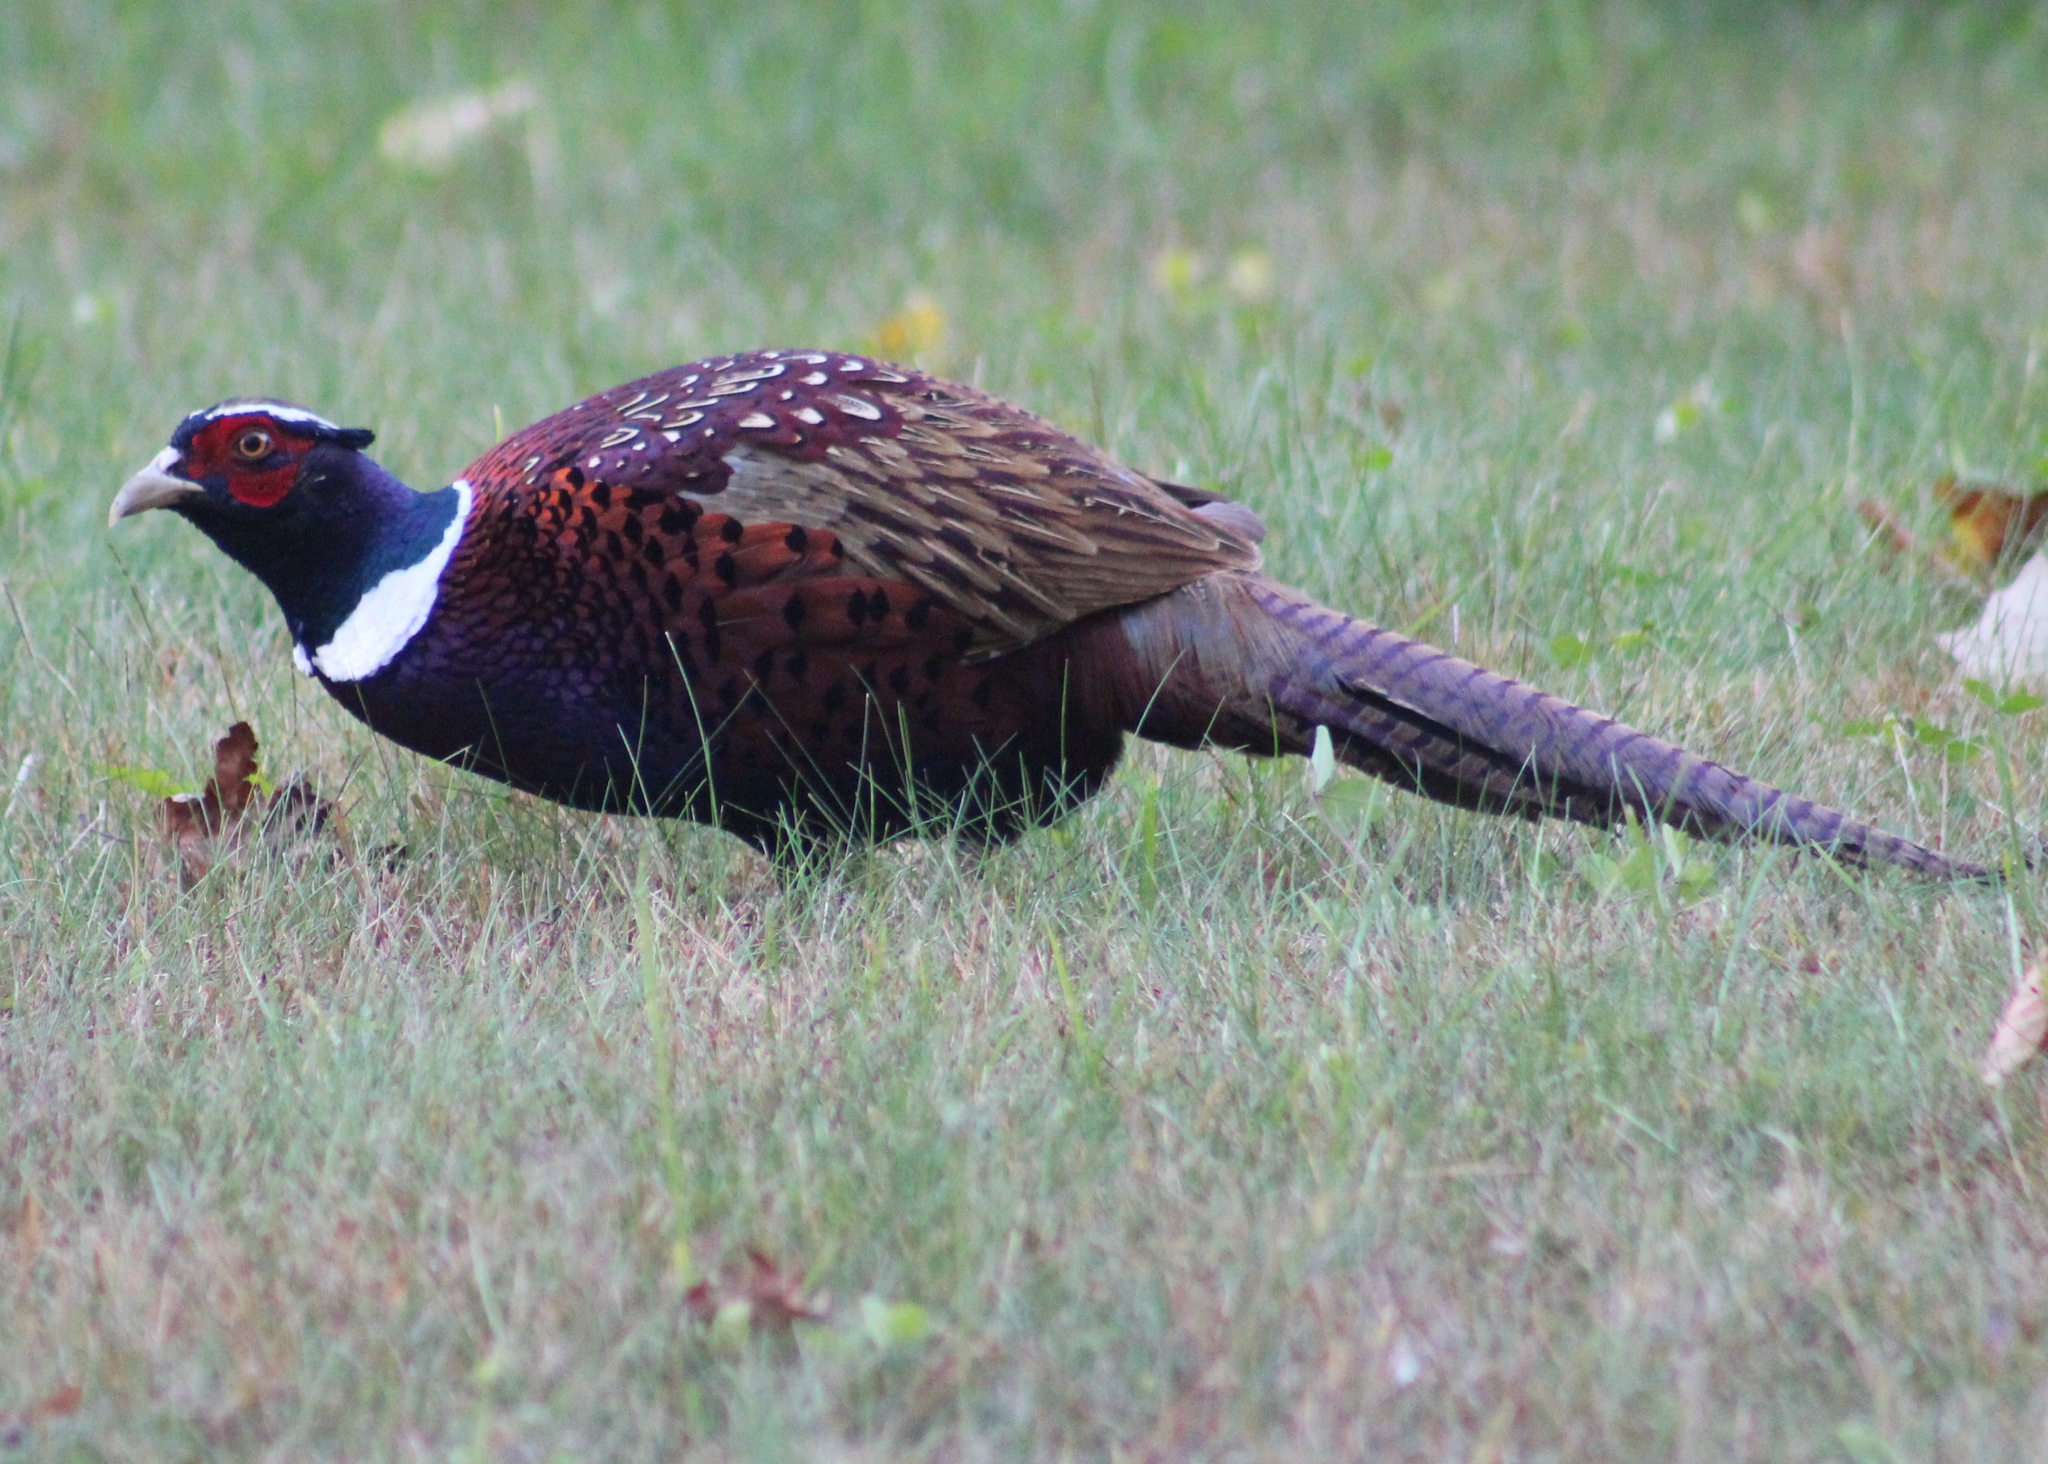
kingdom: Animalia
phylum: Chordata
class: Aves
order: Galliformes
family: Phasianidae
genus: Phasianus
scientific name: Phasianus colchicus
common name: Common pheasant
